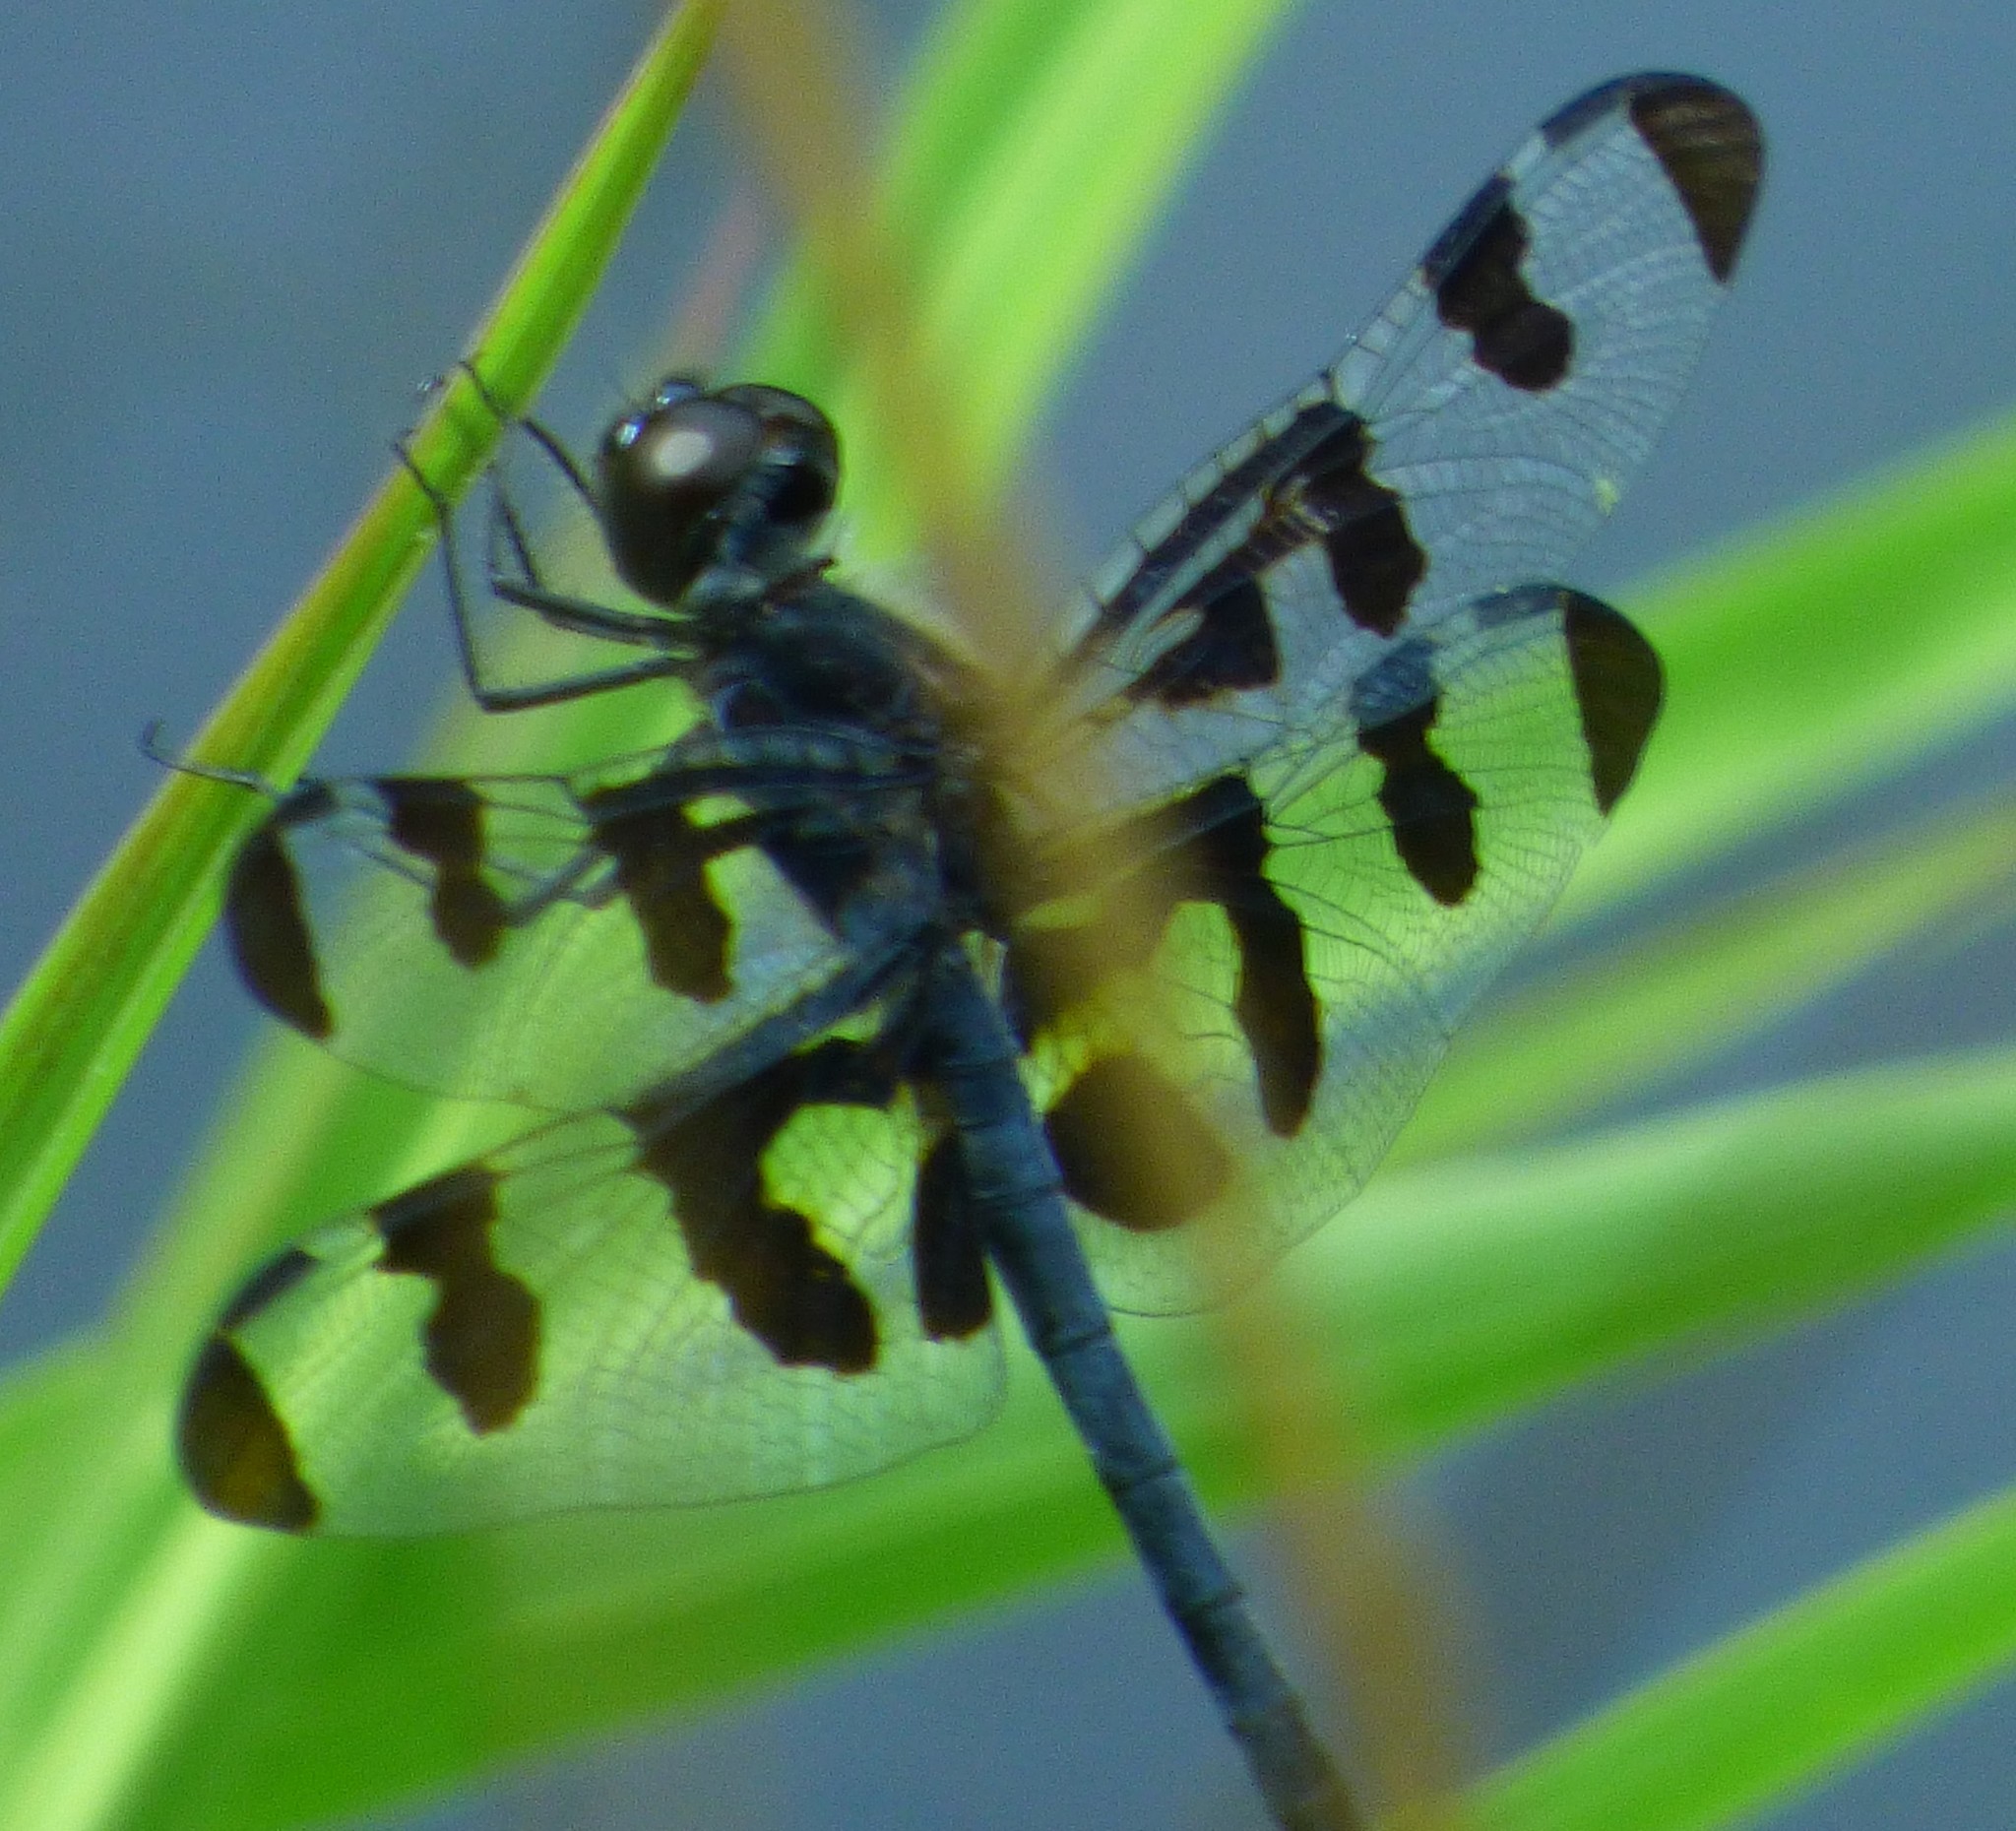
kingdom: Animalia
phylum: Arthropoda
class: Insecta
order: Odonata
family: Libellulidae
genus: Celithemis
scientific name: Celithemis fasciata
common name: Banded pennant
